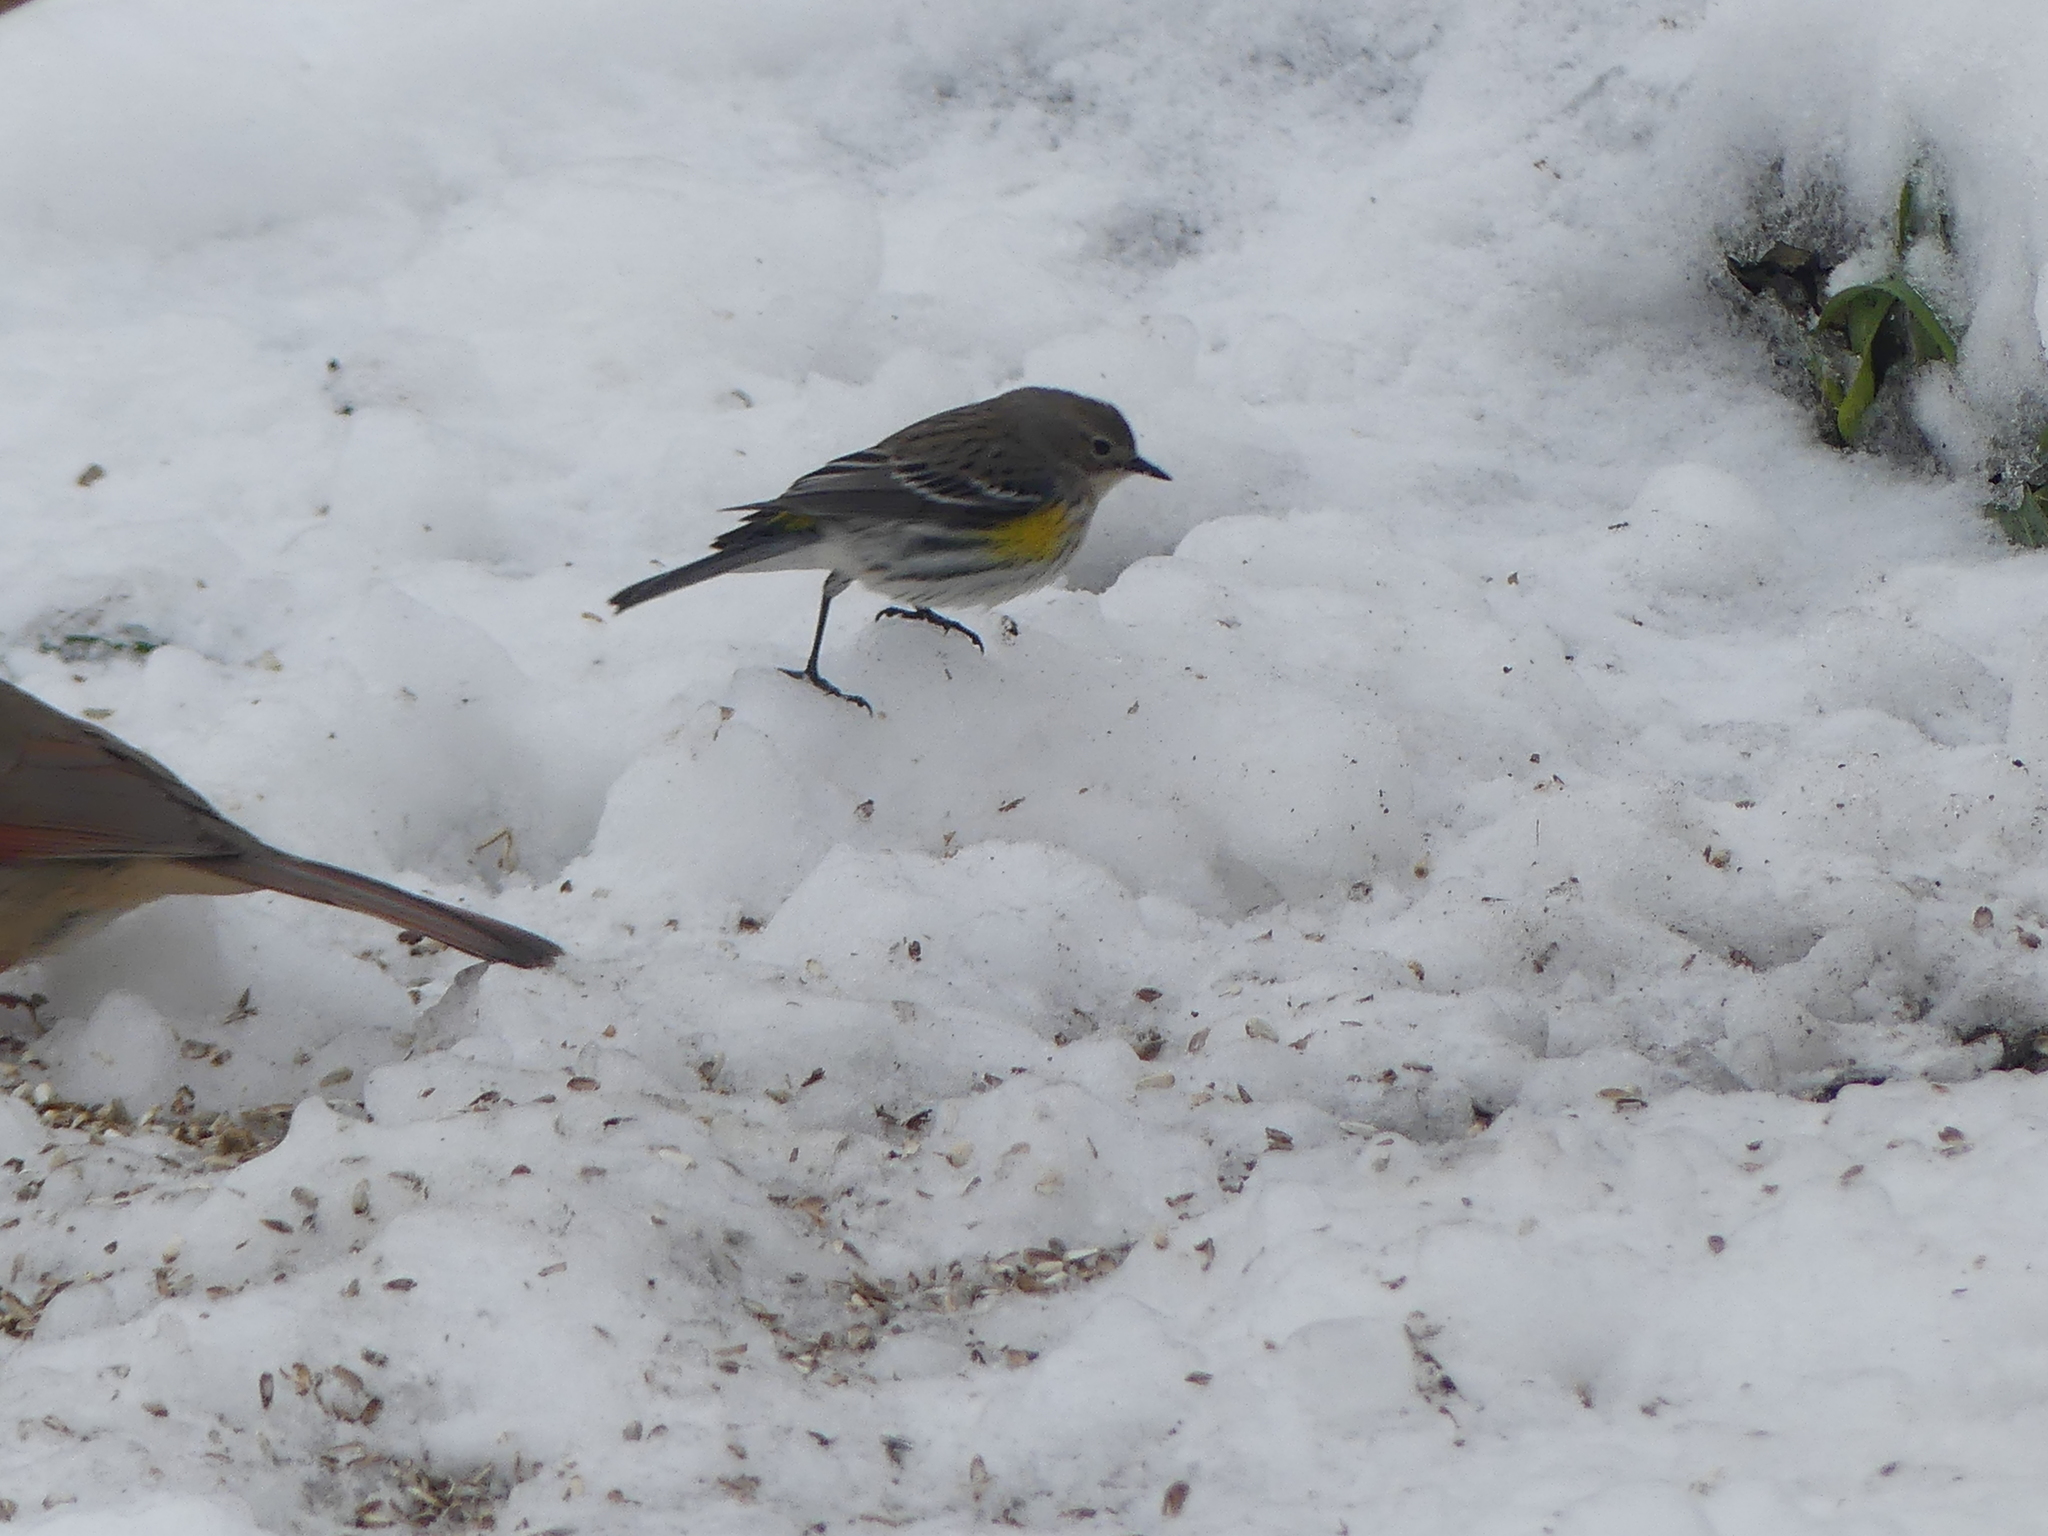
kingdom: Animalia
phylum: Chordata
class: Aves
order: Passeriformes
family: Parulidae
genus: Setophaga
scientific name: Setophaga coronata
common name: Myrtle warbler
